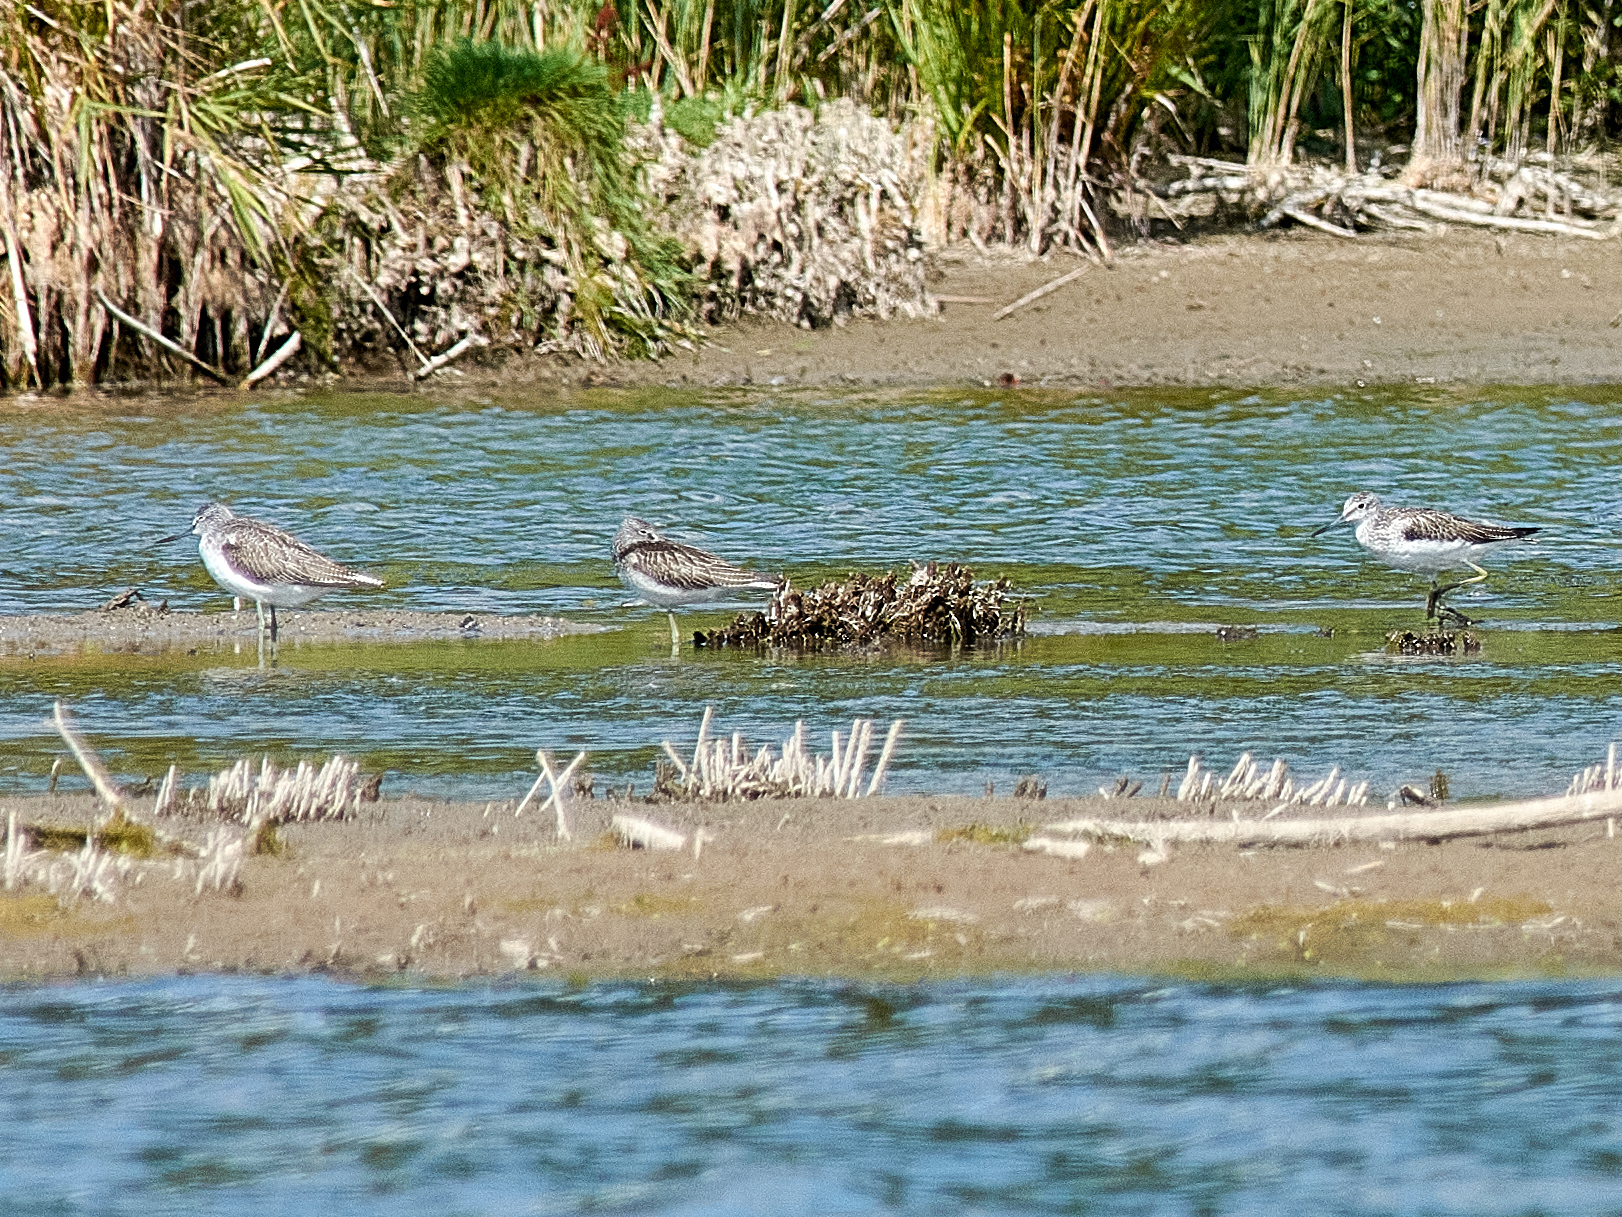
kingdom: Animalia
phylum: Chordata
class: Aves
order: Charadriiformes
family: Scolopacidae
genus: Tringa
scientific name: Tringa nebularia
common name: Common greenshank
